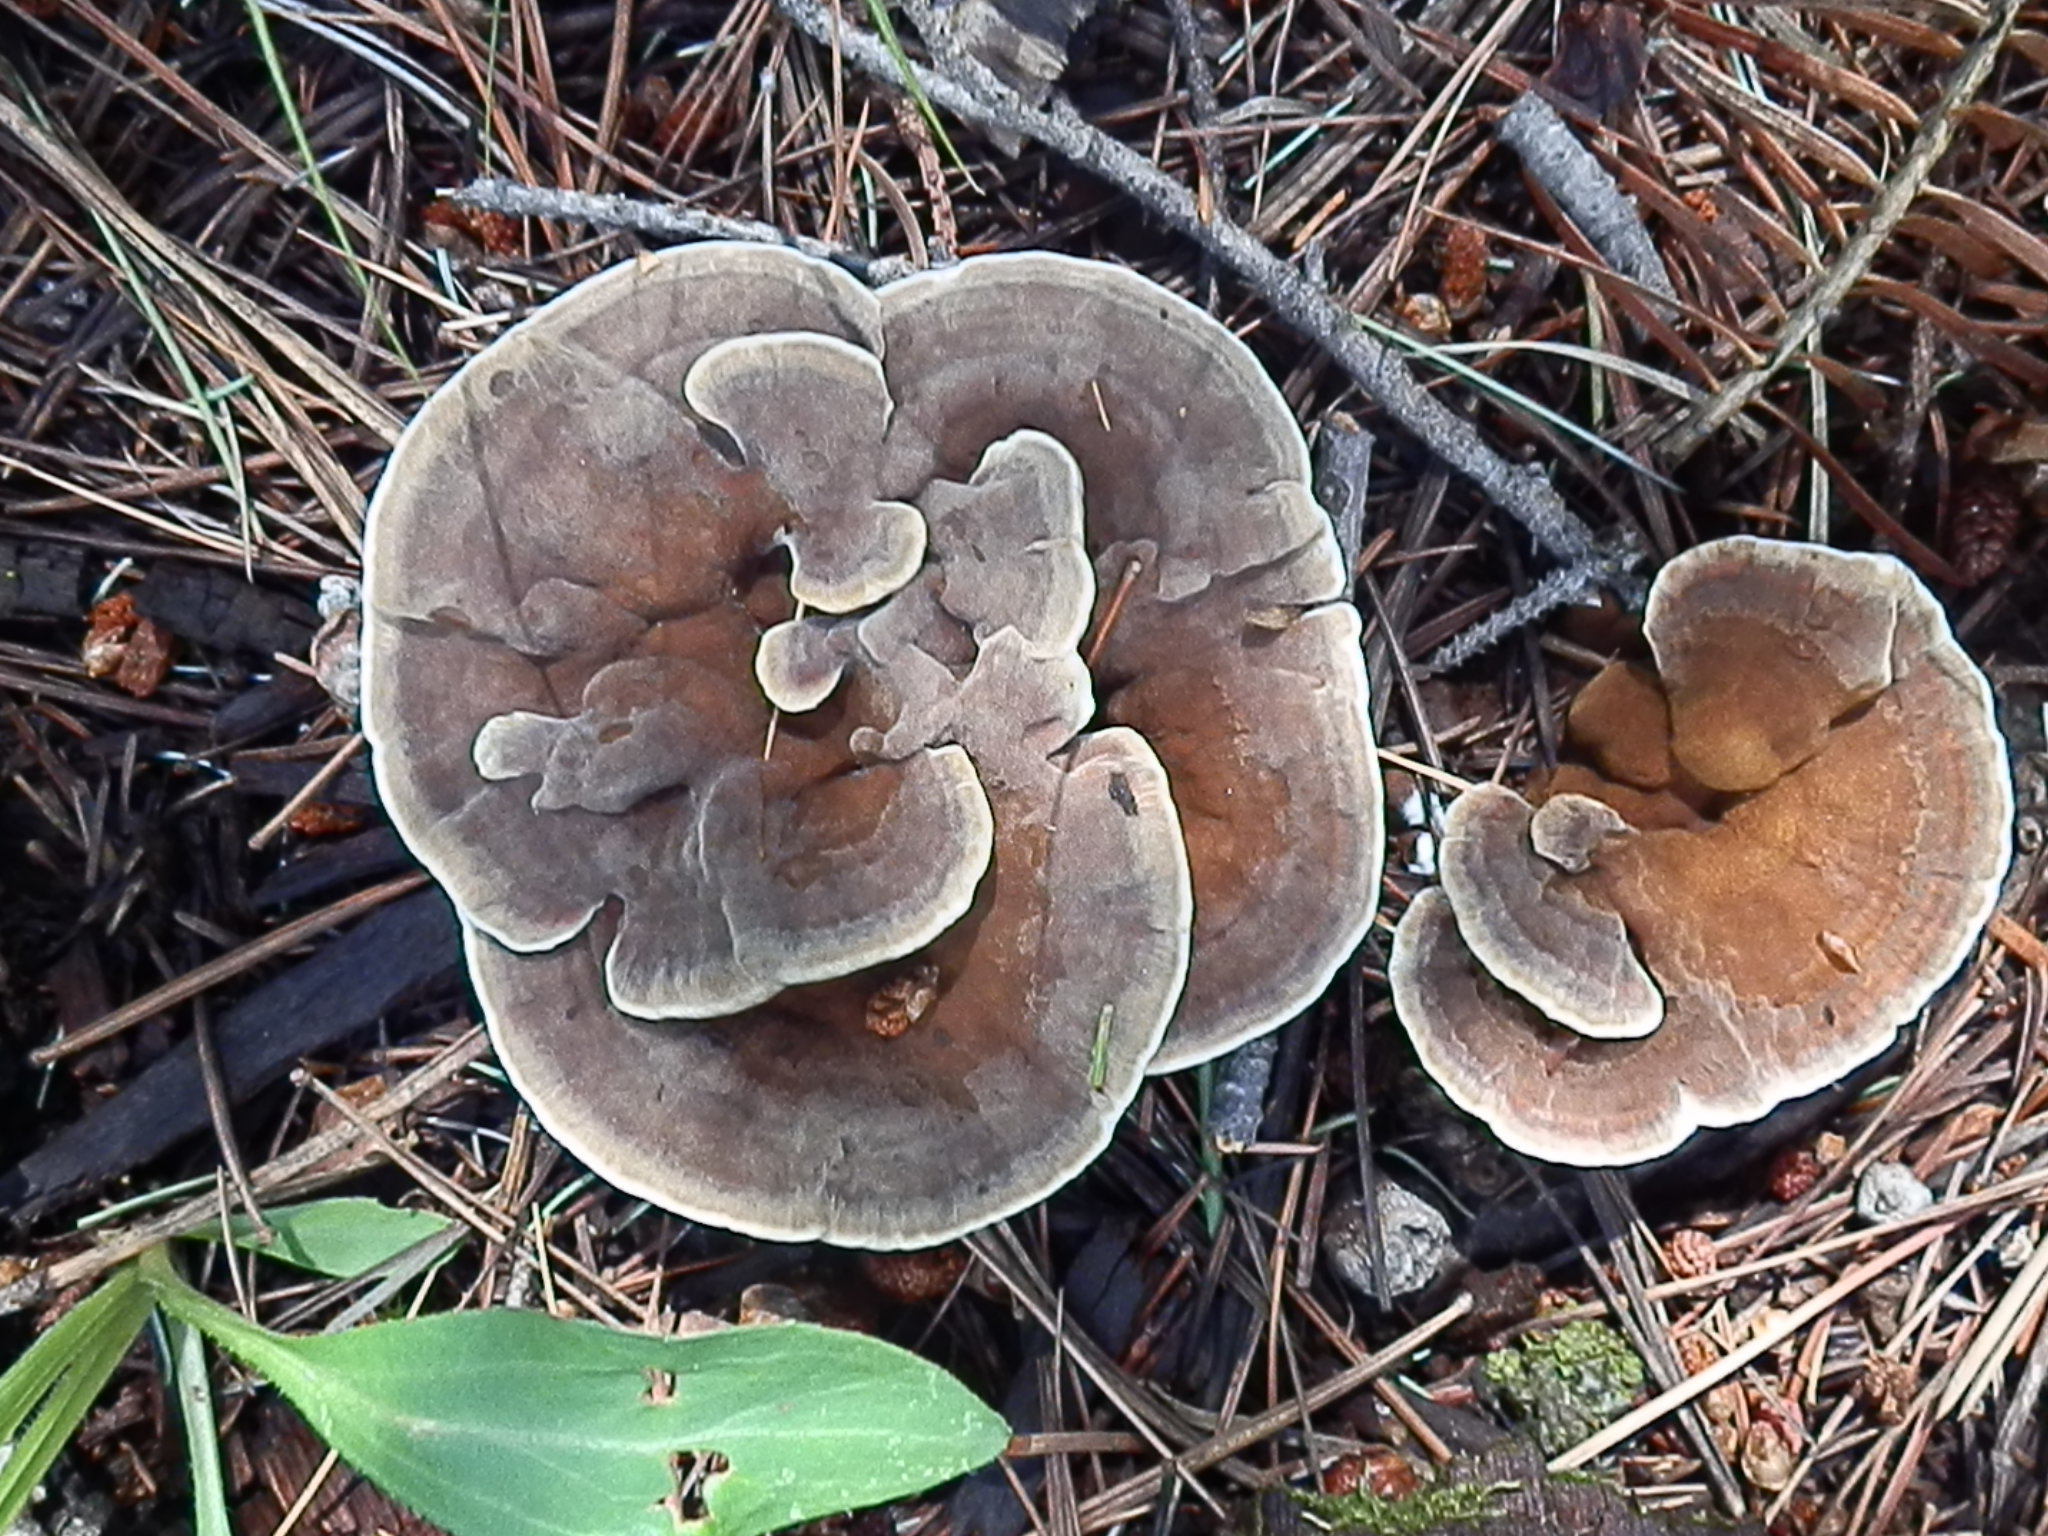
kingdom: Fungi
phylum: Basidiomycota
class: Agaricomycetes
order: Hymenochaetales
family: Hymenochaetaceae
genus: Onnia
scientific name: Onnia tomentosa
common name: Velvet rosette
